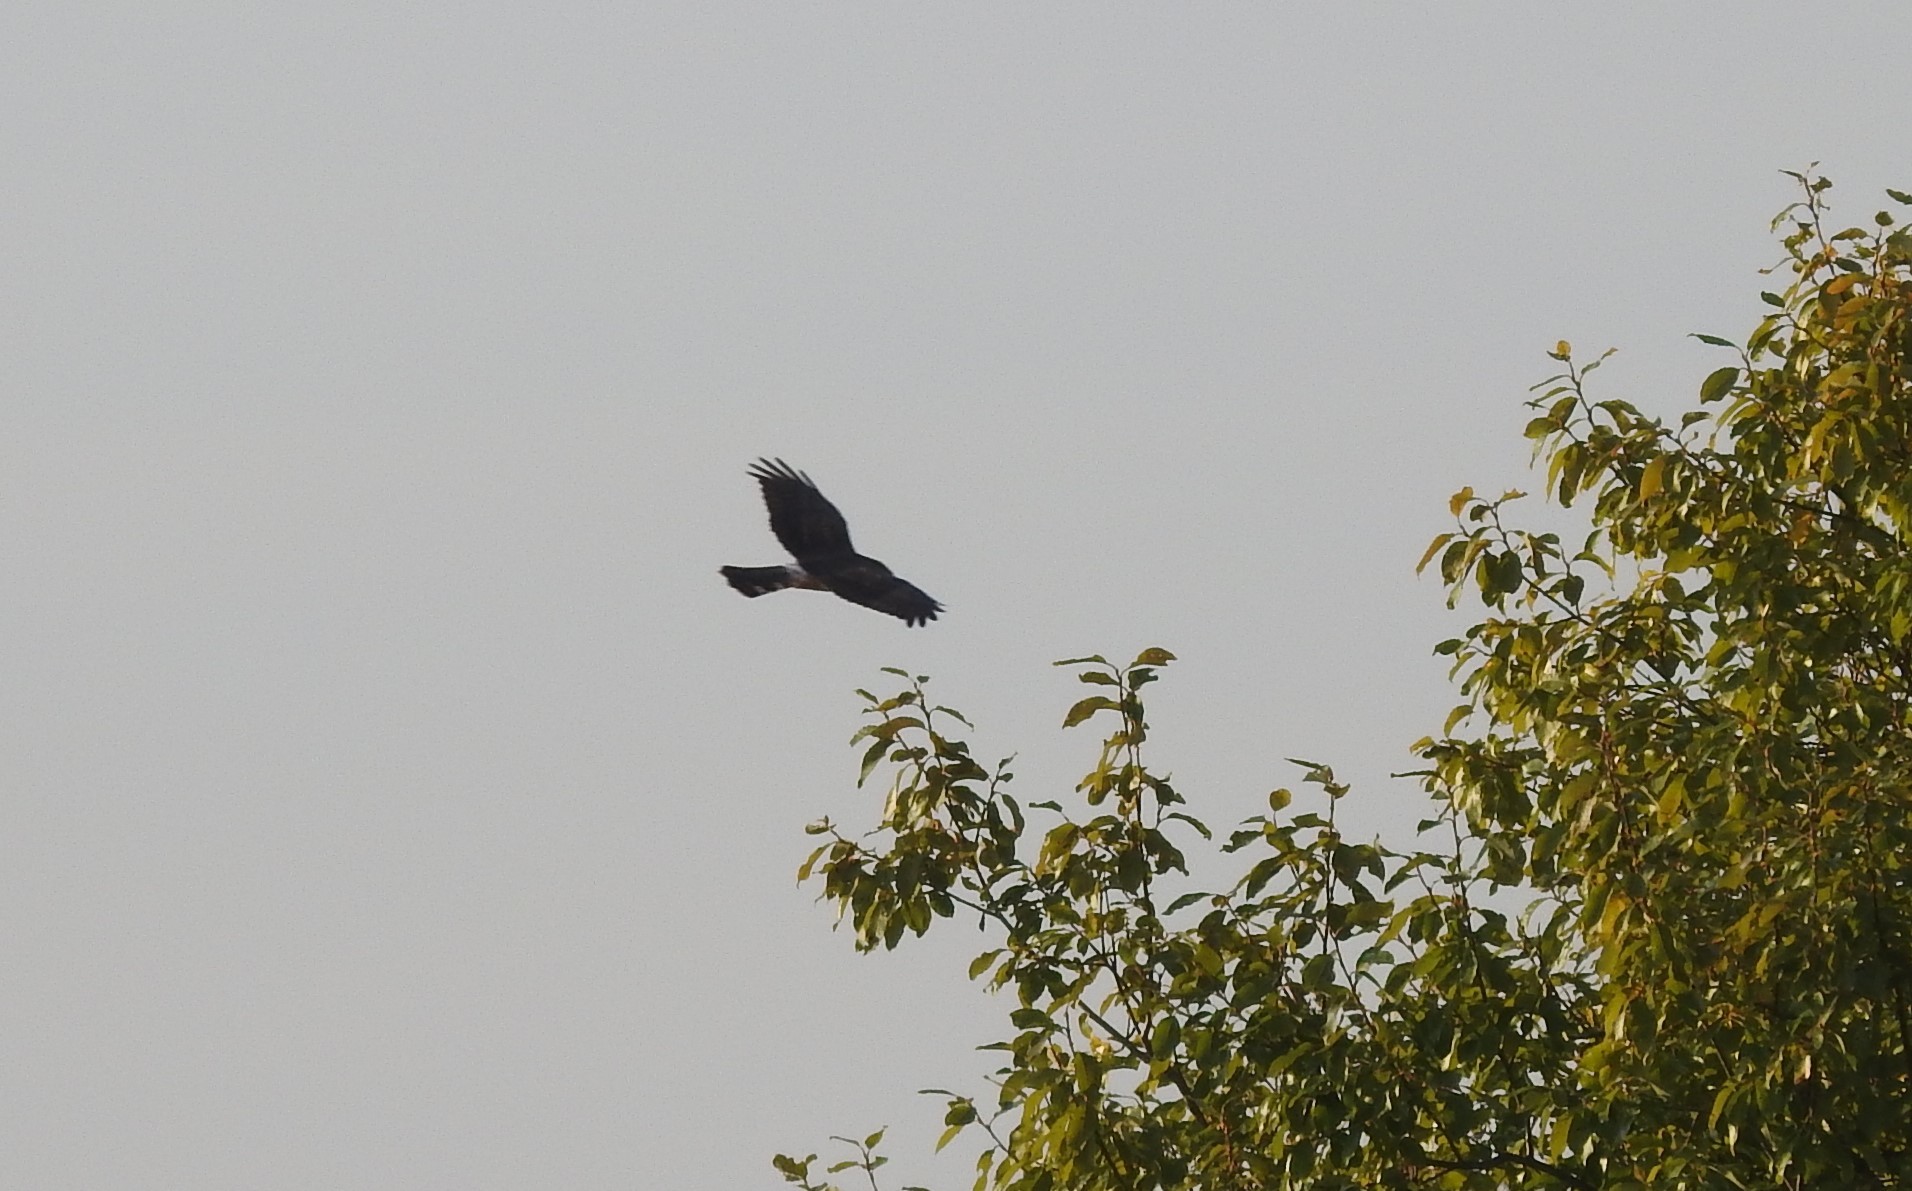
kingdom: Animalia
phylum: Chordata
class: Aves
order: Accipitriformes
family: Accipitridae
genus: Circus
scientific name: Circus cyaneus
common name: Hen harrier
